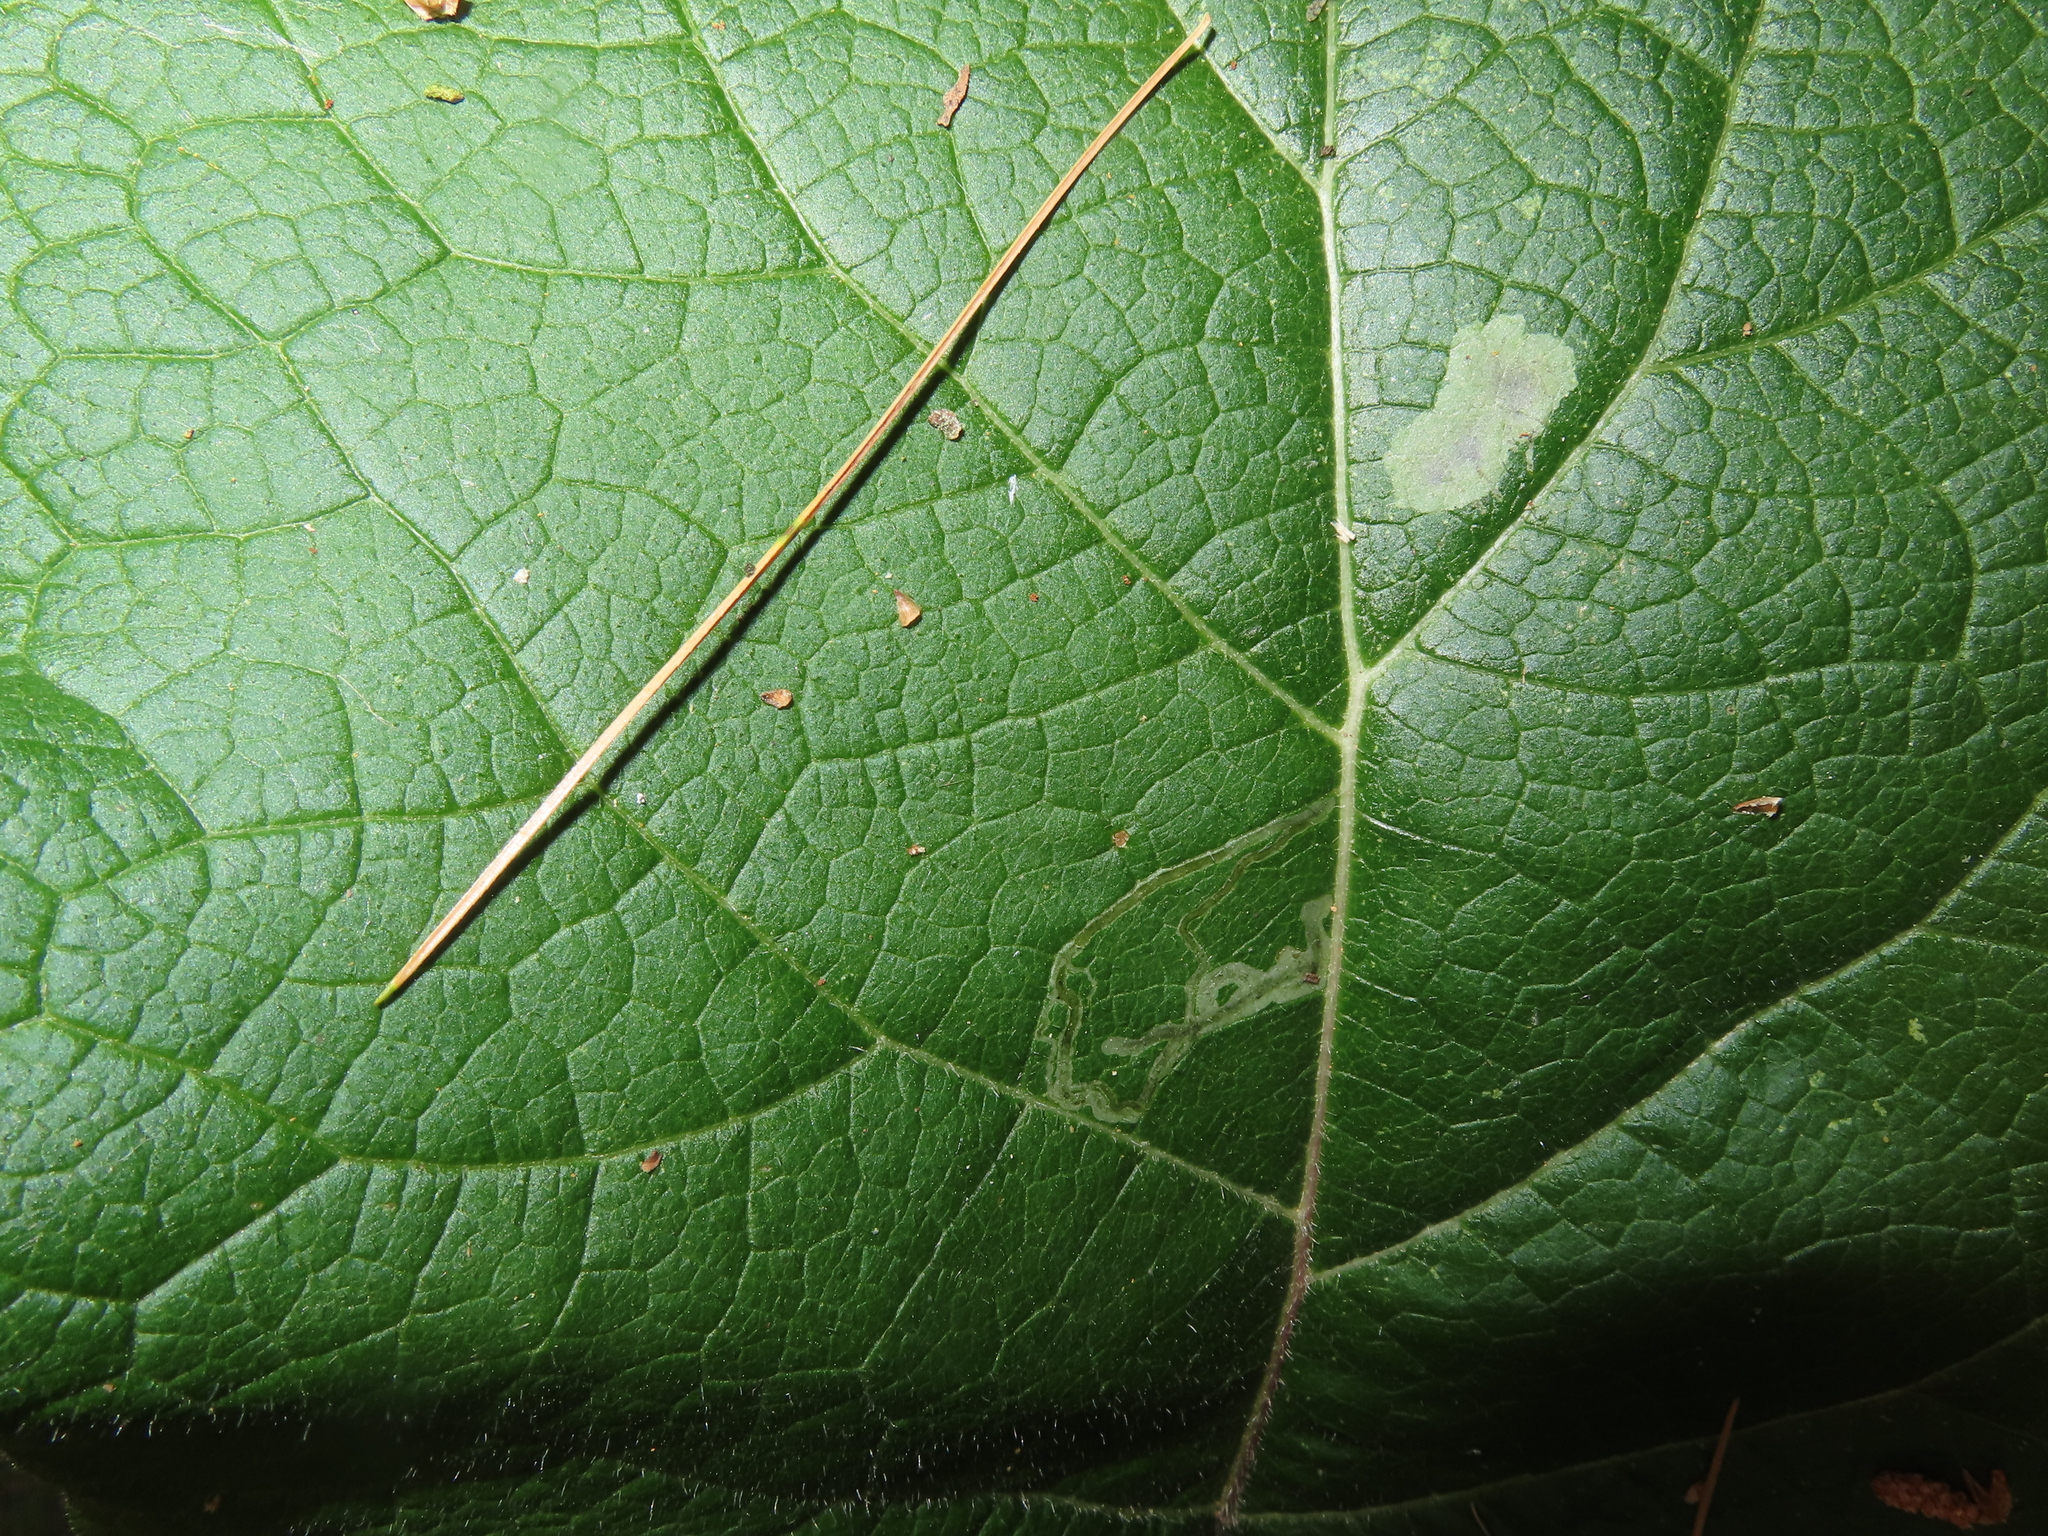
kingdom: Animalia
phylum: Arthropoda
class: Insecta
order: Diptera
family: Agromyzidae
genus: Liriomyza
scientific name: Liriomyza arctii
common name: Burdock leafminer
